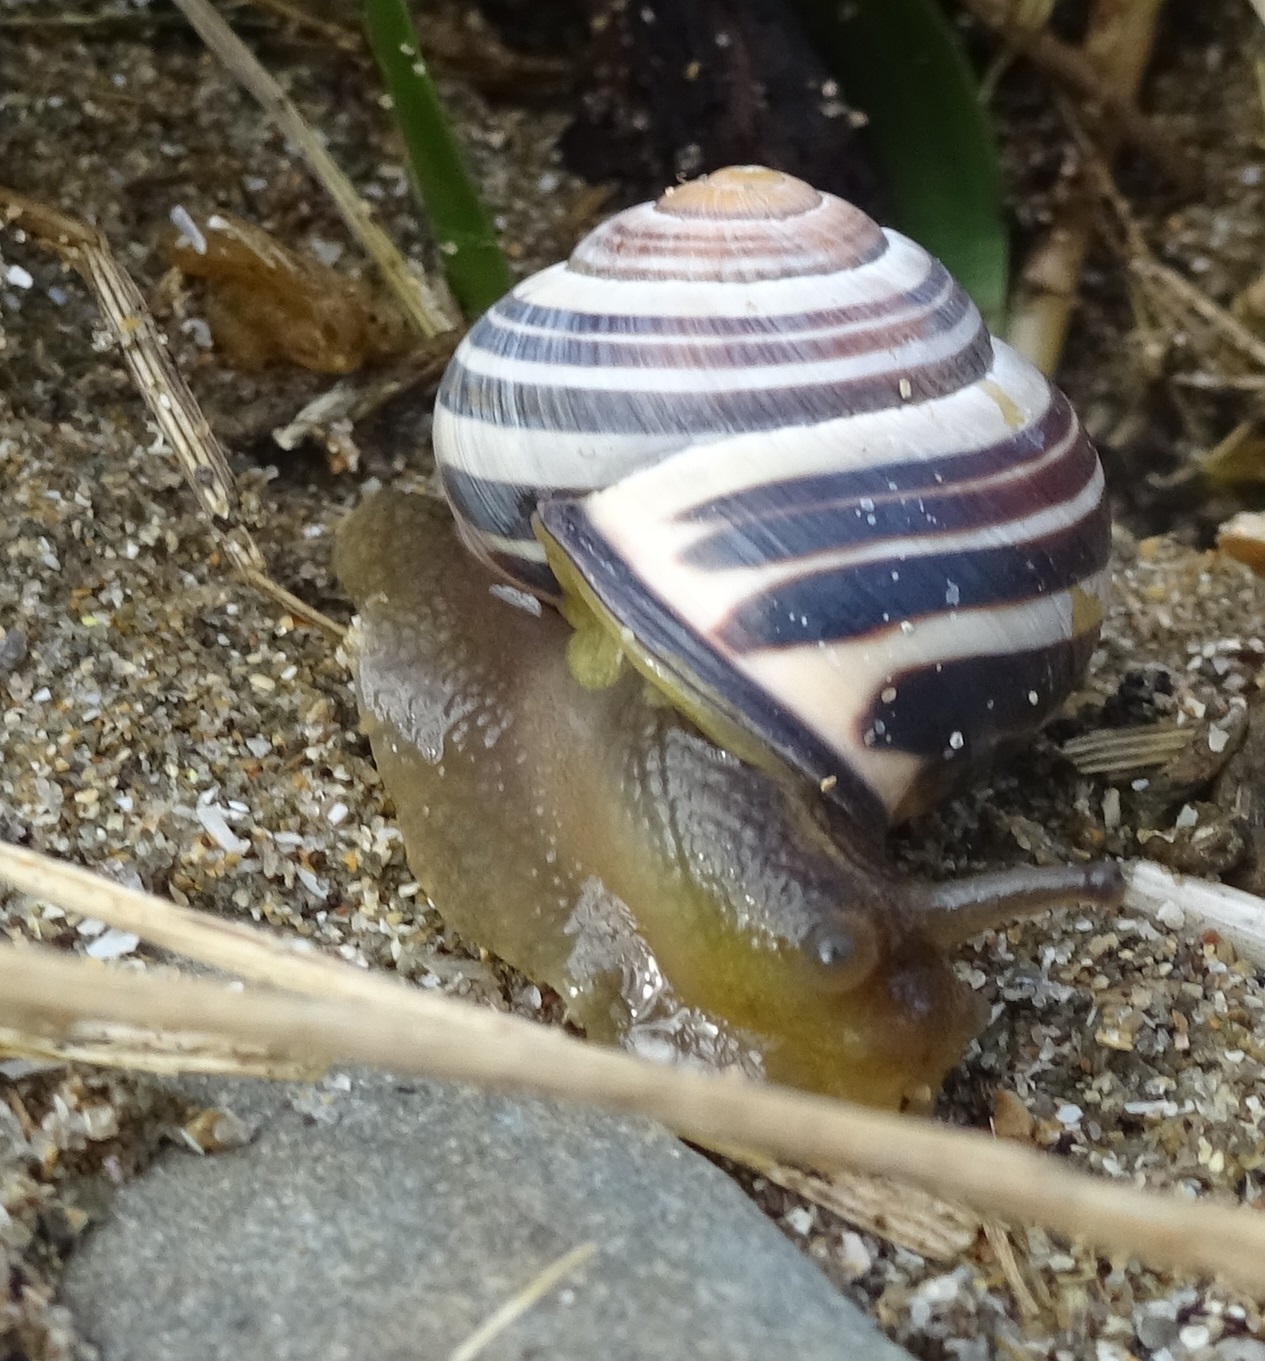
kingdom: Animalia
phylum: Mollusca
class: Gastropoda
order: Stylommatophora
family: Helicidae
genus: Cepaea
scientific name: Cepaea nemoralis
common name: Grovesnail
